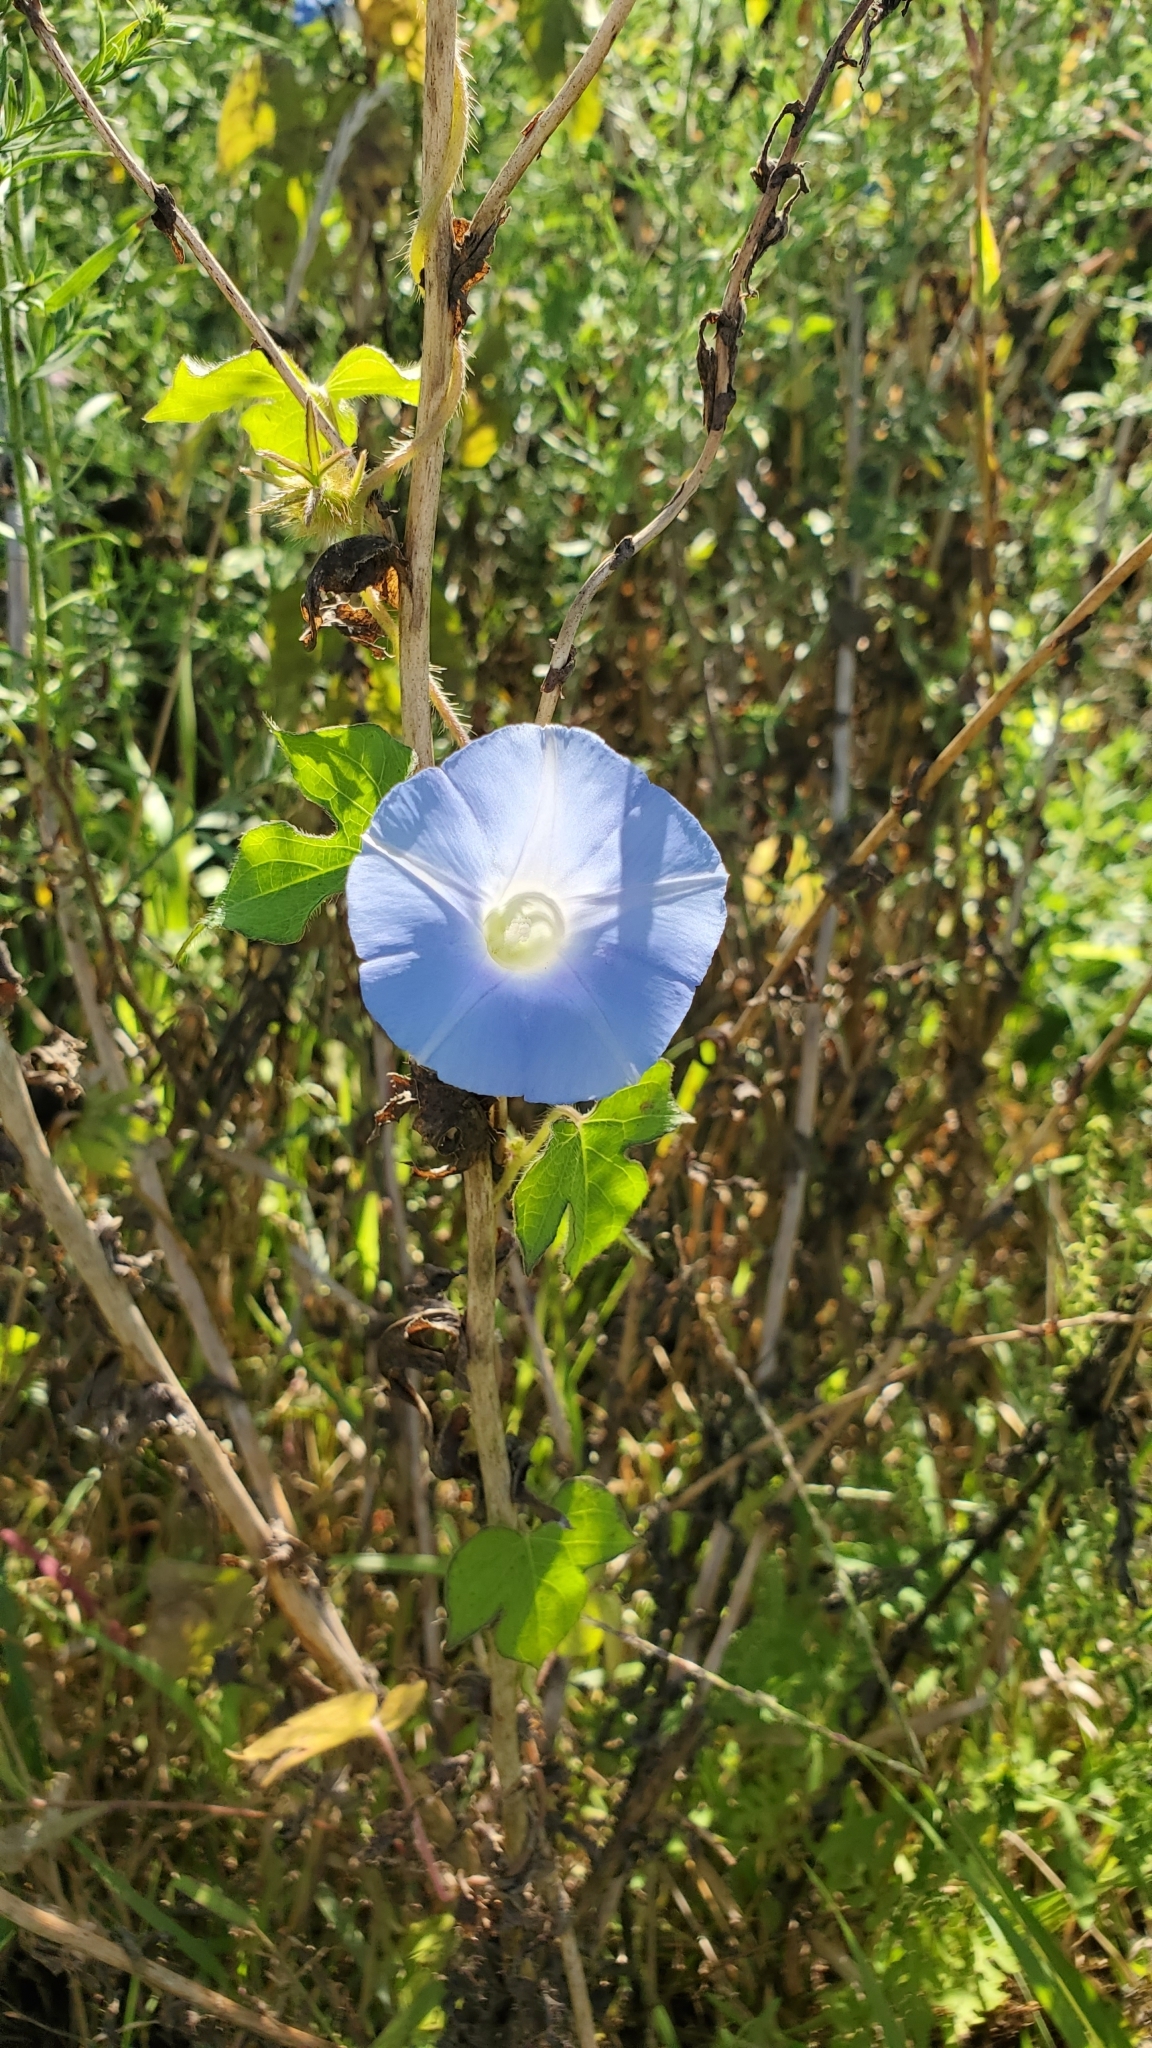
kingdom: Plantae
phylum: Tracheophyta
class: Magnoliopsida
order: Solanales
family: Convolvulaceae
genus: Ipomoea
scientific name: Ipomoea hederacea
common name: Ivy-leaved morning-glory
